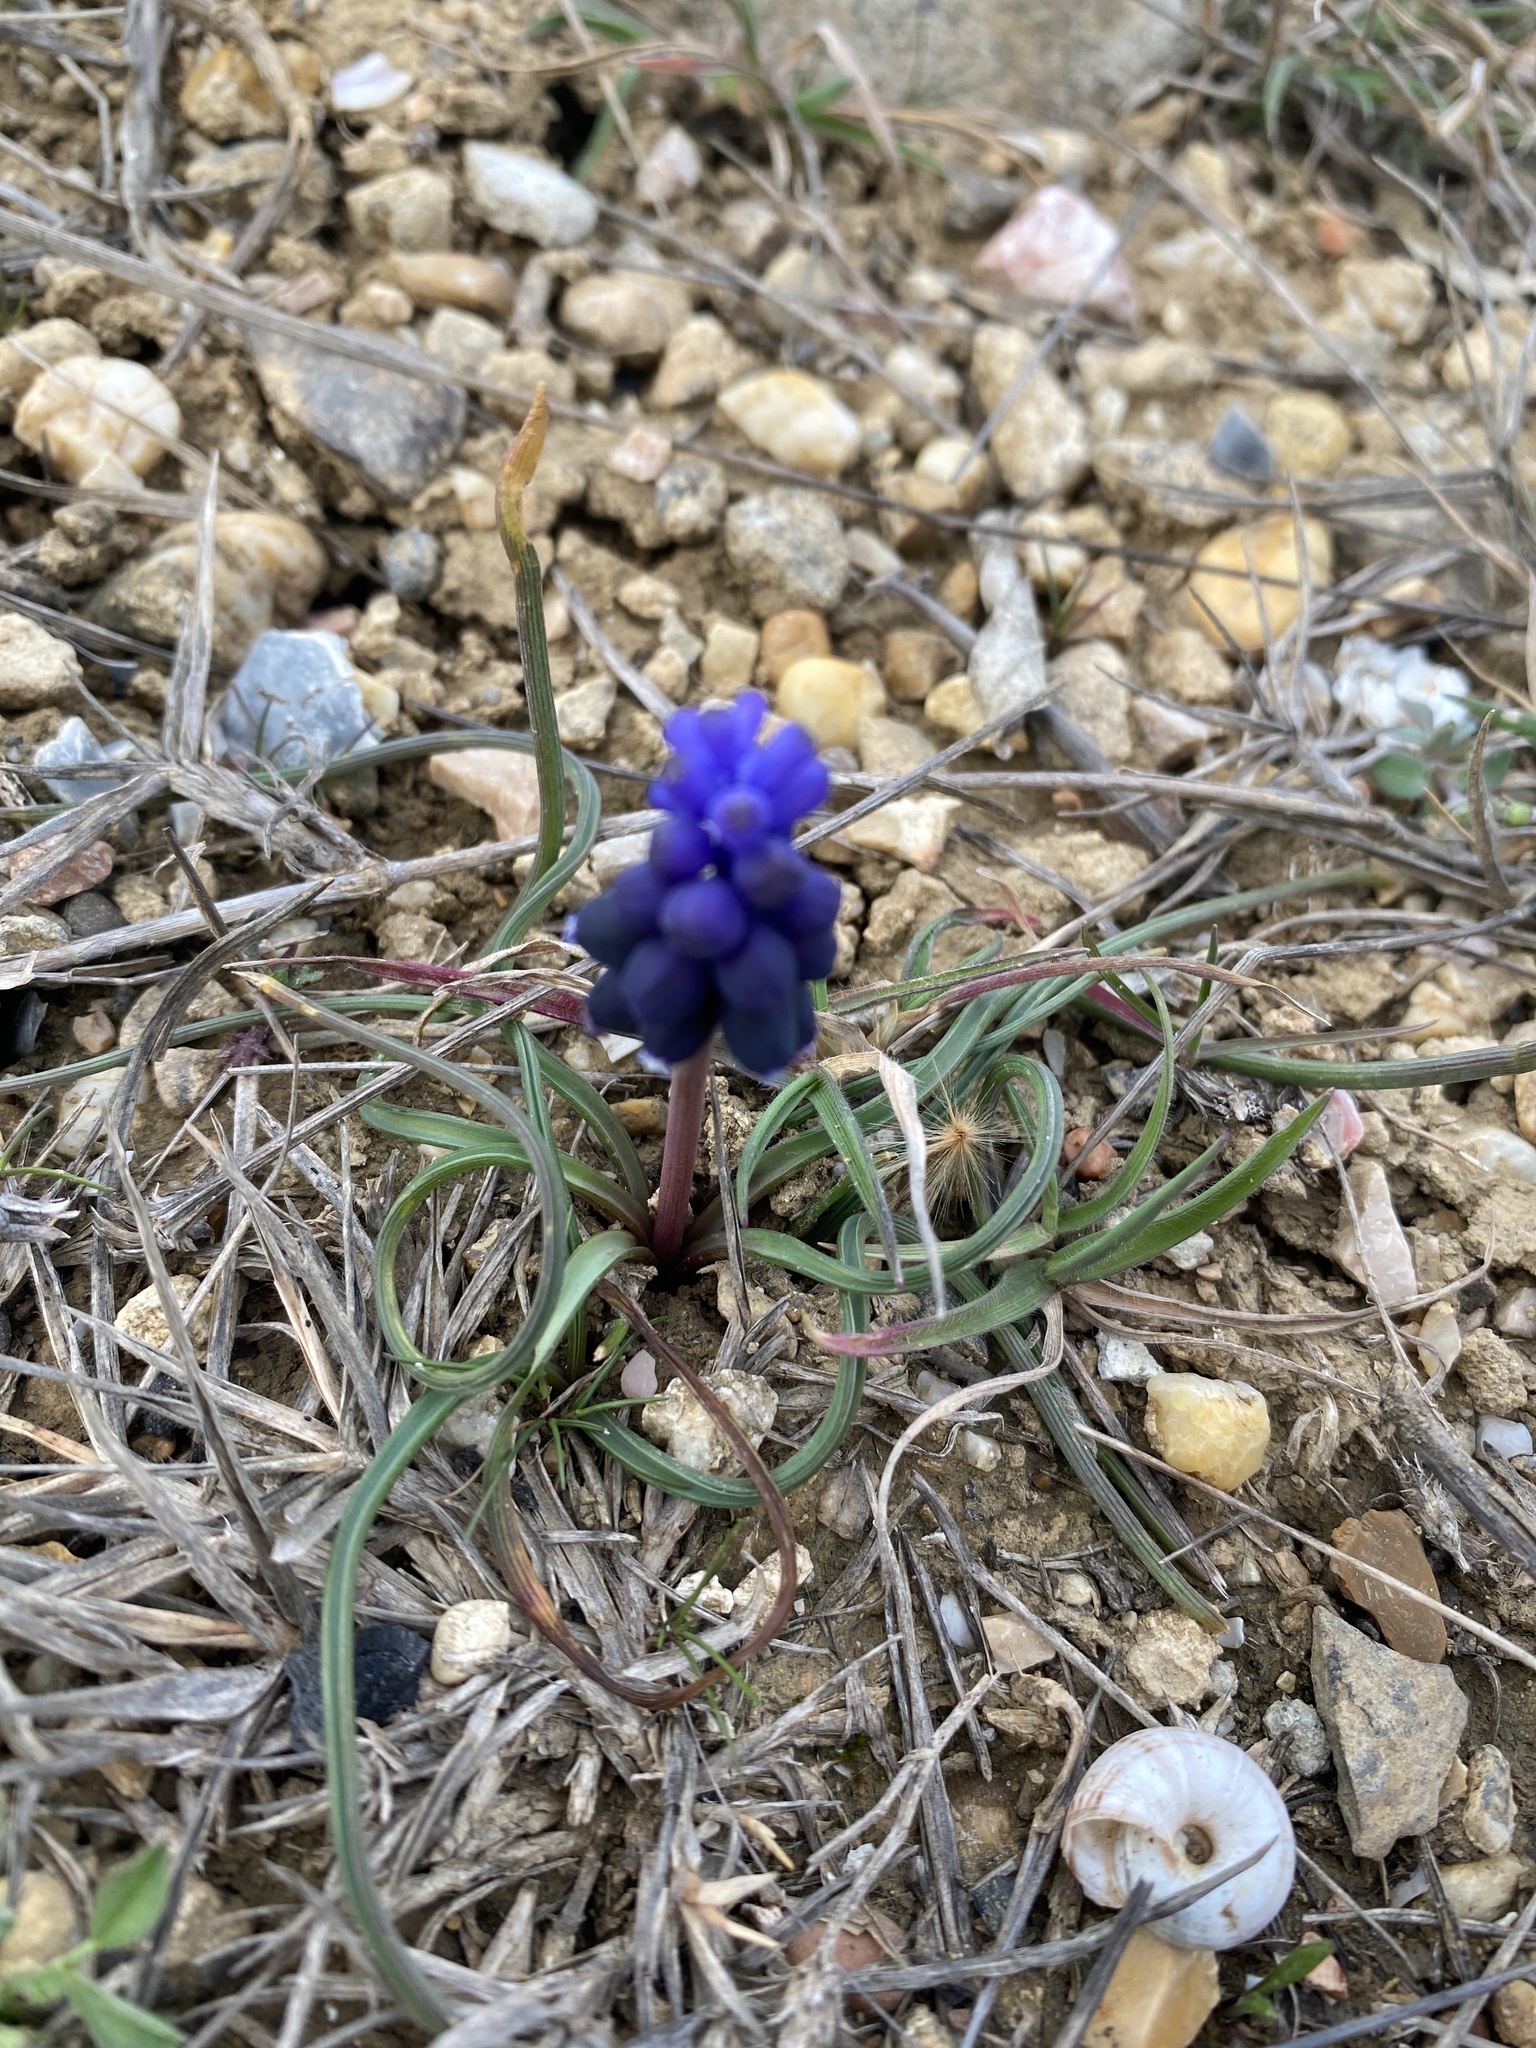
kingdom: Plantae
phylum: Tracheophyta
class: Liliopsida
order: Asparagales
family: Asparagaceae
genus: Muscari
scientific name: Muscari neglectum
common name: Grape-hyacinth
